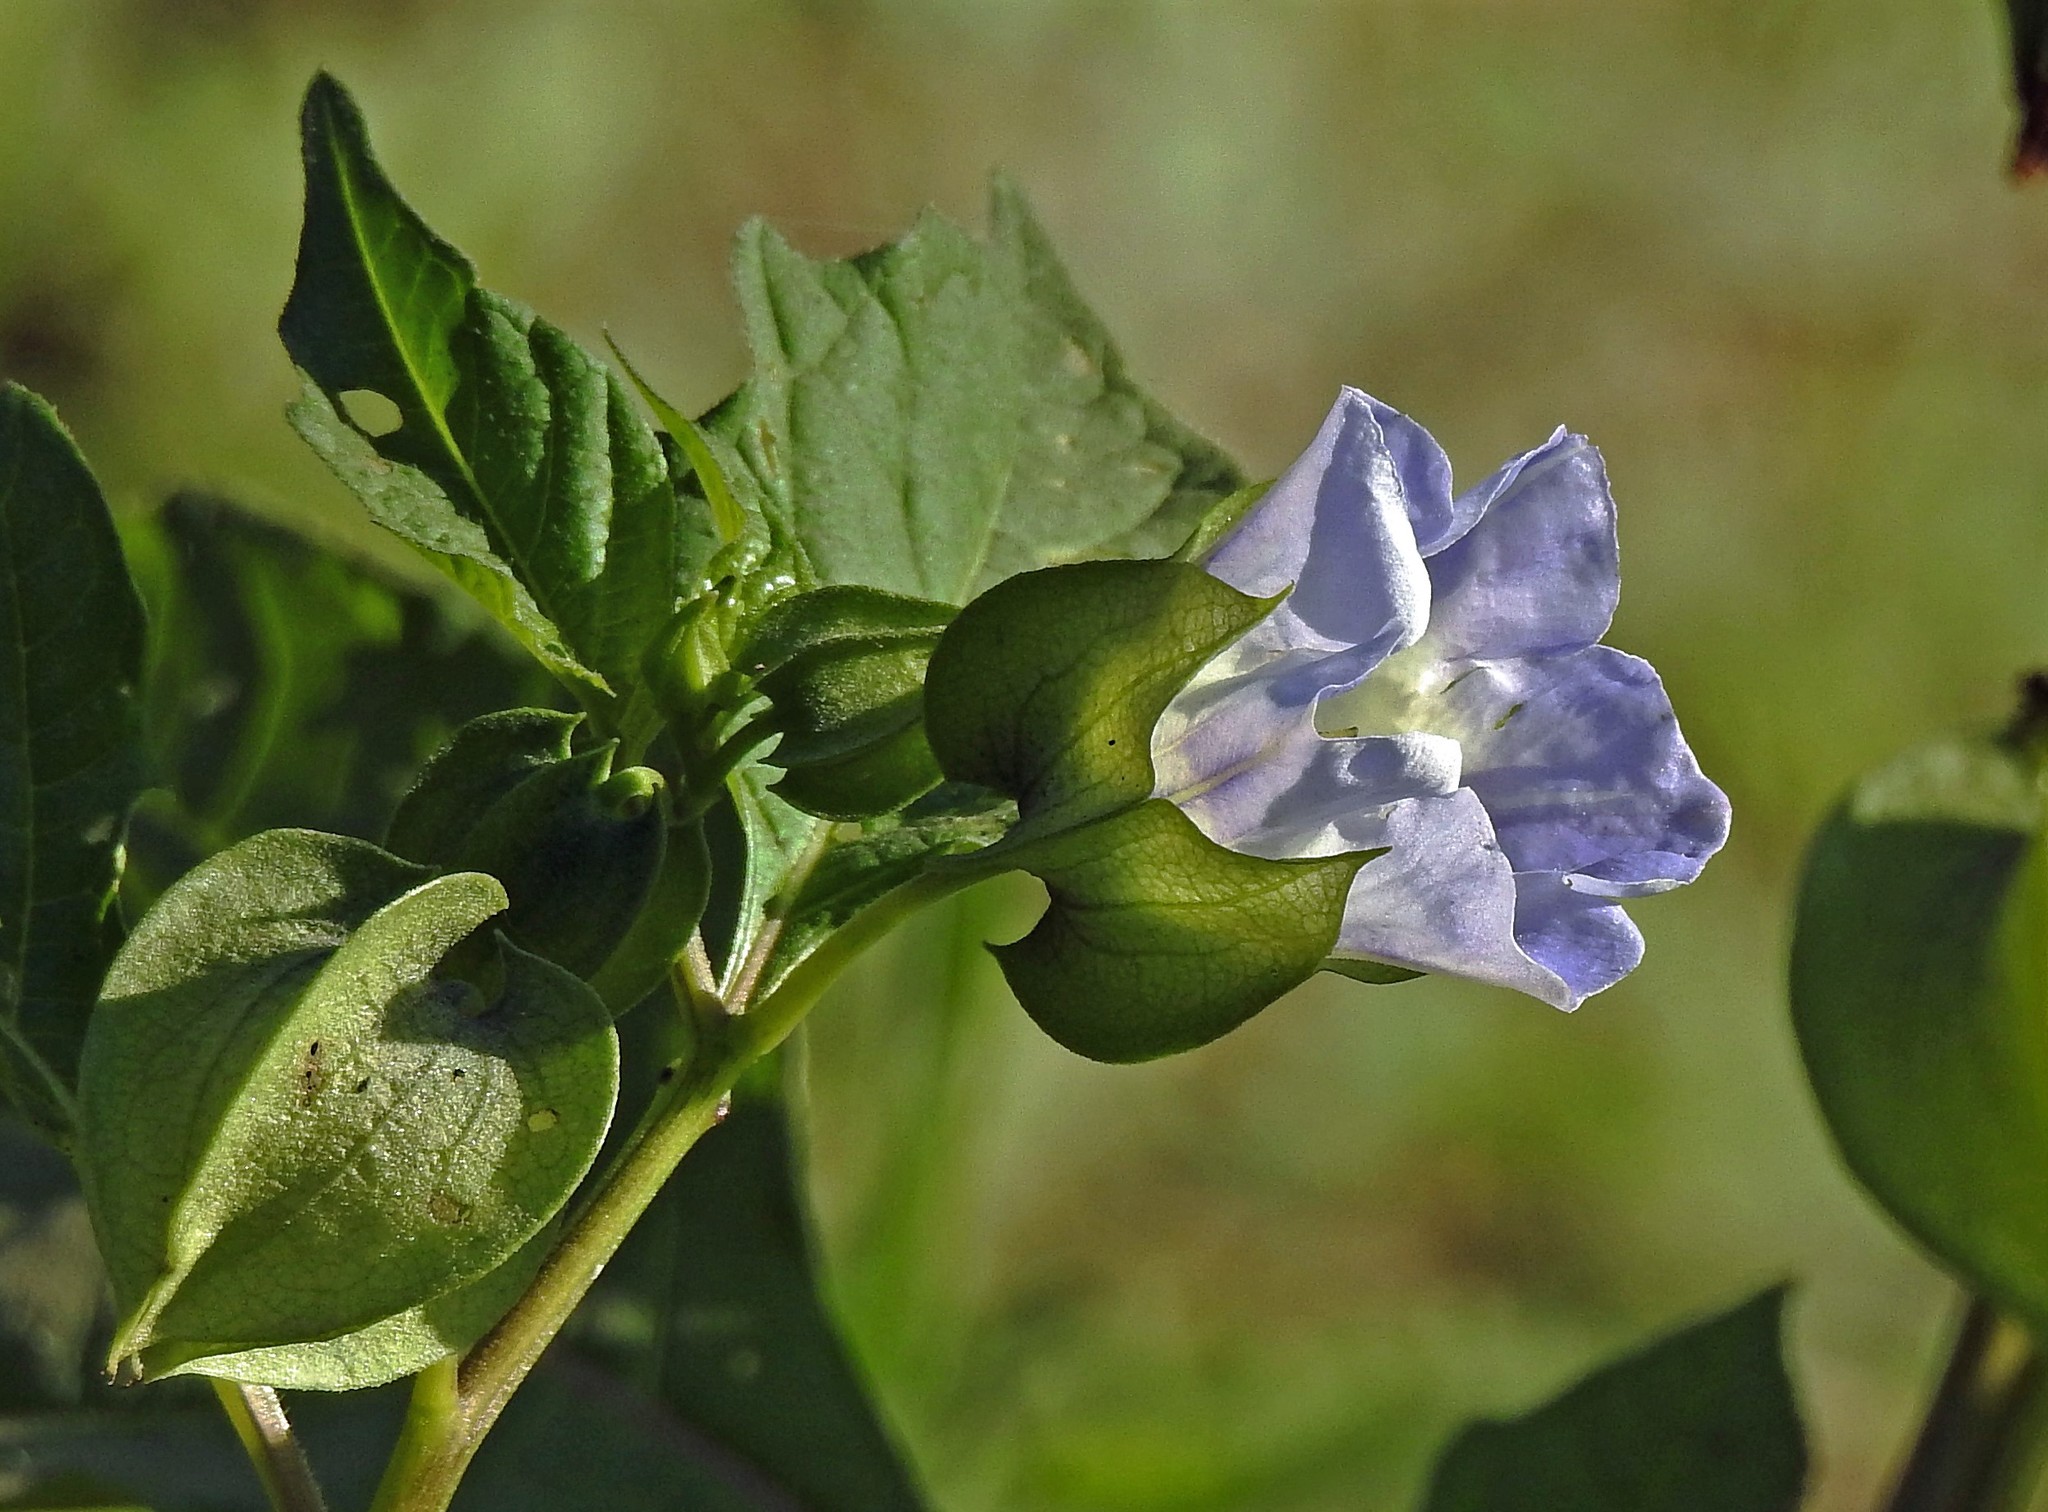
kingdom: Plantae
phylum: Tracheophyta
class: Magnoliopsida
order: Solanales
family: Solanaceae
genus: Nicandra
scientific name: Nicandra physalodes
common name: Apple-of-peru
